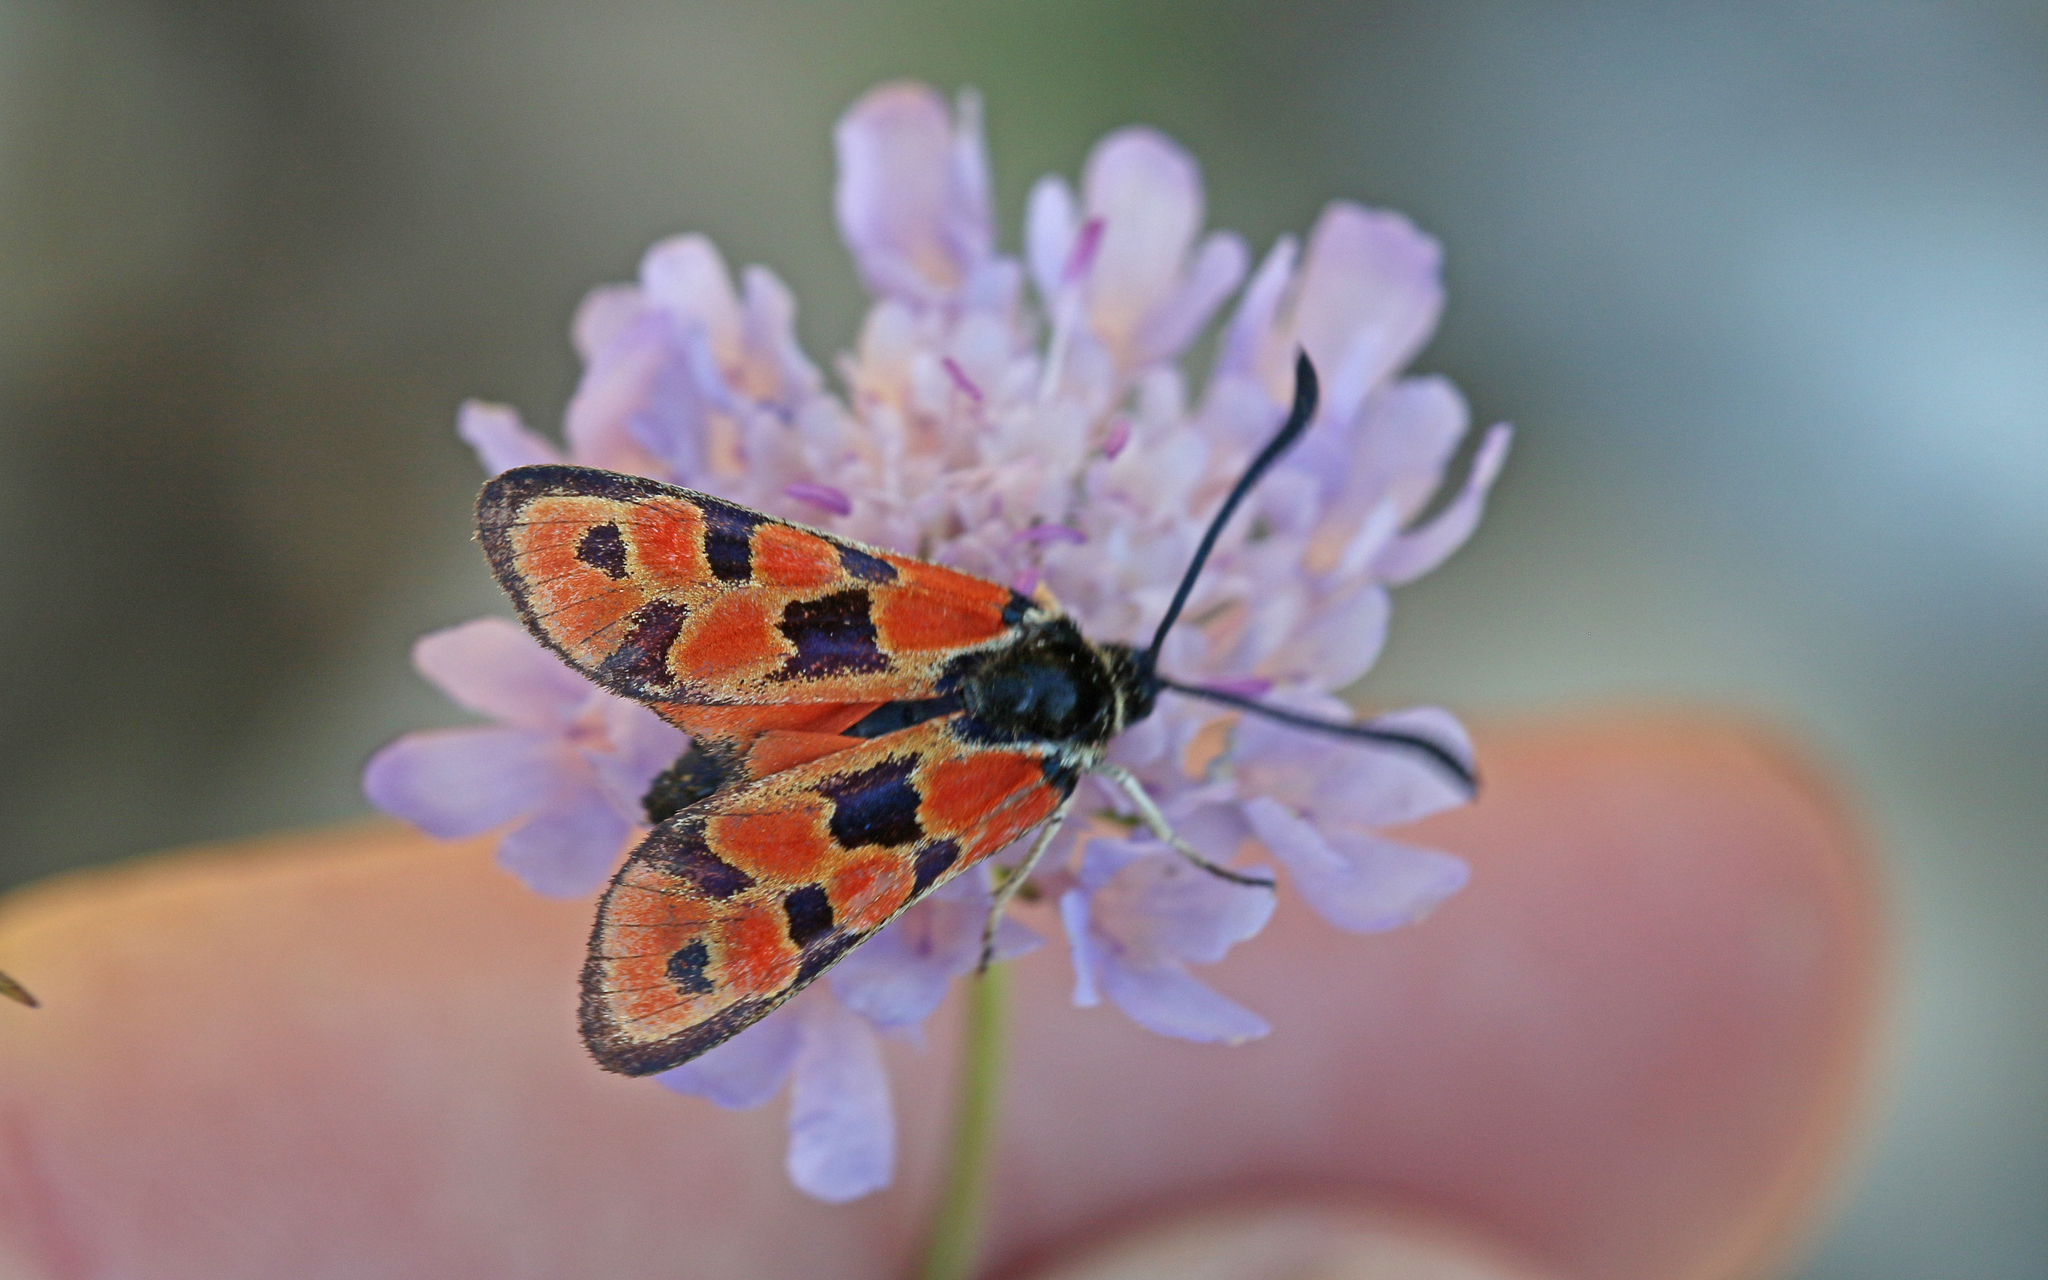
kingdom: Animalia
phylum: Arthropoda
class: Insecta
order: Lepidoptera
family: Zygaenidae
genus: Zygaena
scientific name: Zygaena fausta
